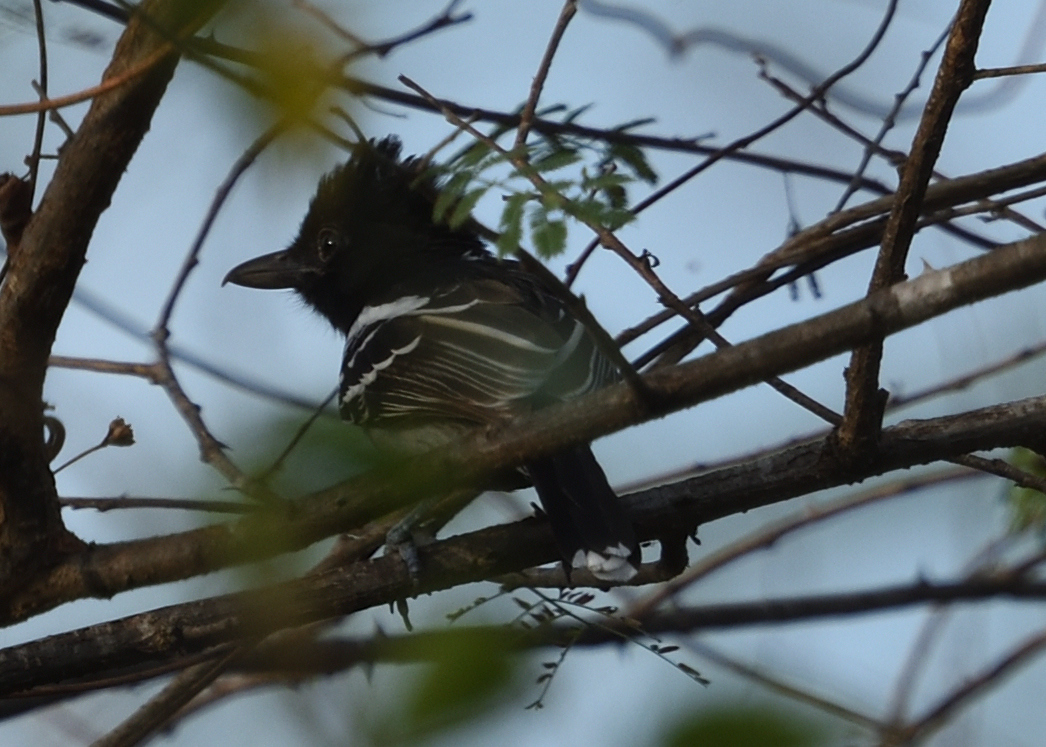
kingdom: Animalia
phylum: Chordata
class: Aves
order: Passeriformes
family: Thamnophilidae
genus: Thamnophilus
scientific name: Thamnophilus melanonotus
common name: Black-backed antshrike
